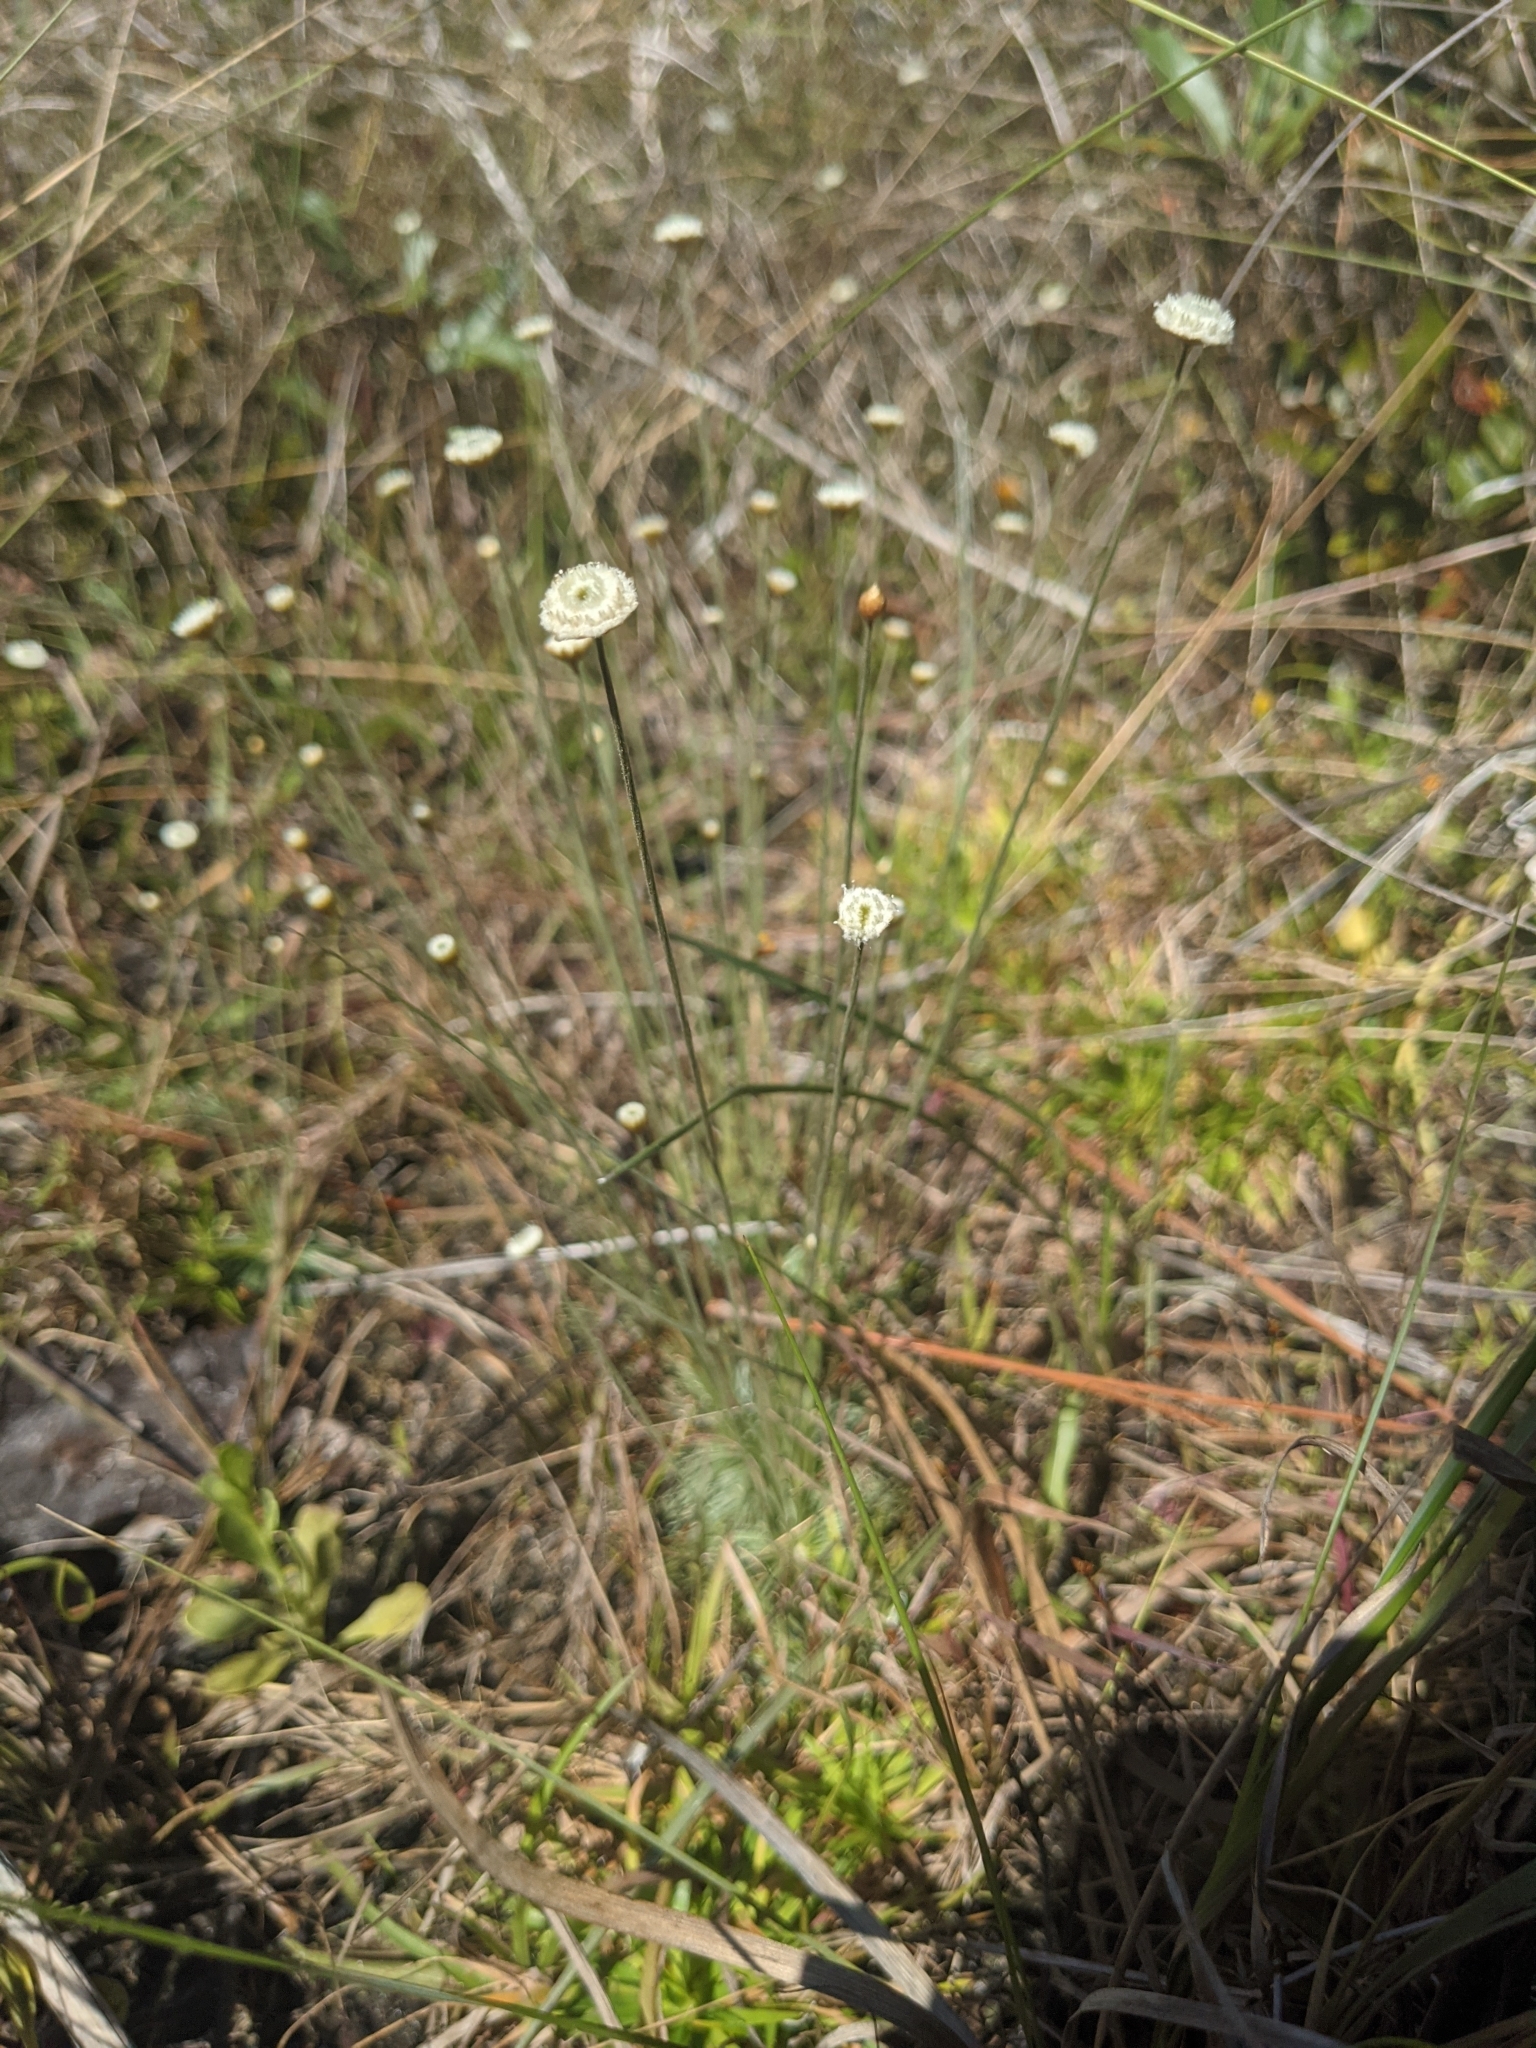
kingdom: Plantae
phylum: Tracheophyta
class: Liliopsida
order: Poales
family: Eriocaulaceae
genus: Syngonanthus
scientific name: Syngonanthus flavidulus
